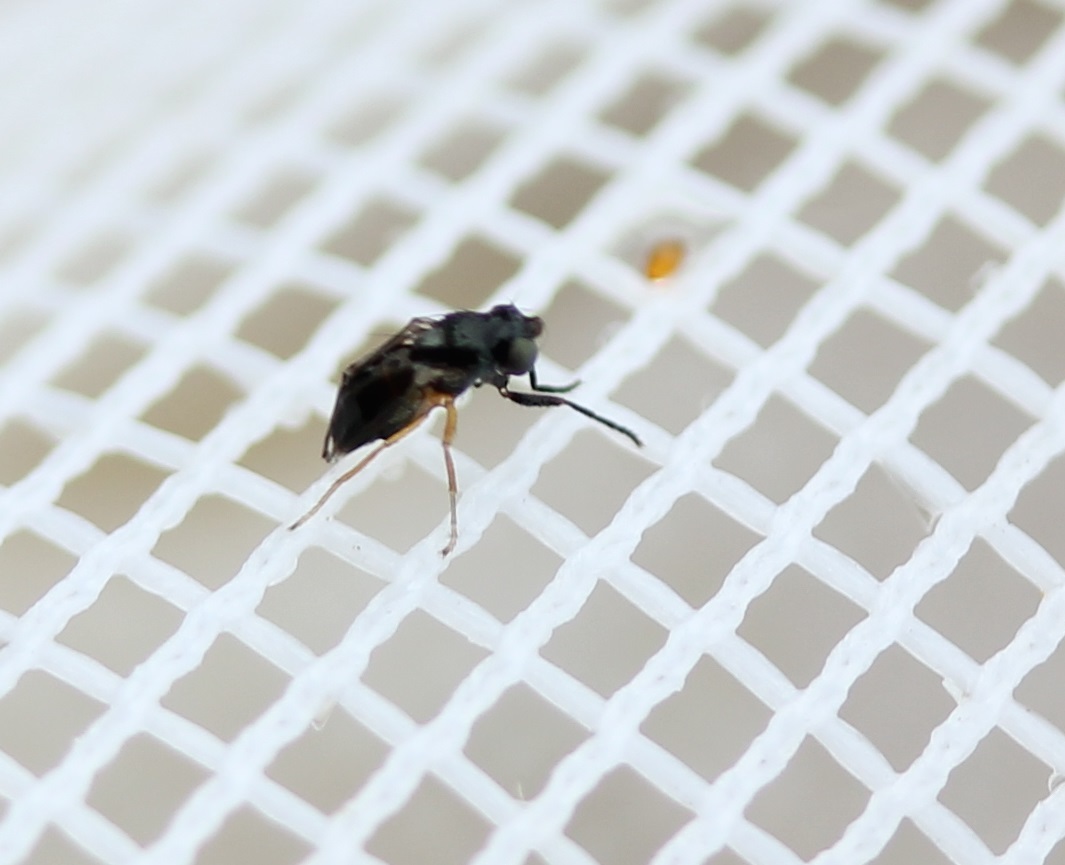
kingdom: Animalia
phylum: Arthropoda
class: Insecta
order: Diptera
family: Ephydridae
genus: Leptopsilopa
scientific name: Leptopsilopa atrimanus
